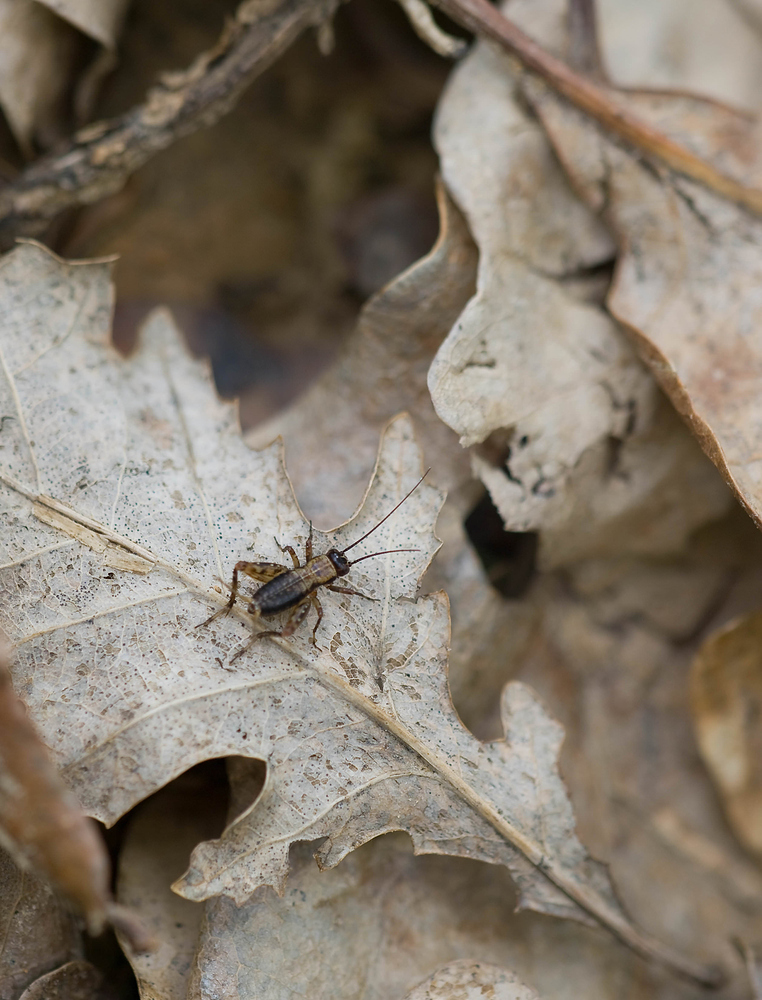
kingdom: Animalia
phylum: Arthropoda
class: Insecta
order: Orthoptera
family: Trigonidiidae
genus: Nemobius
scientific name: Nemobius sylvestris
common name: Wood-cricket
